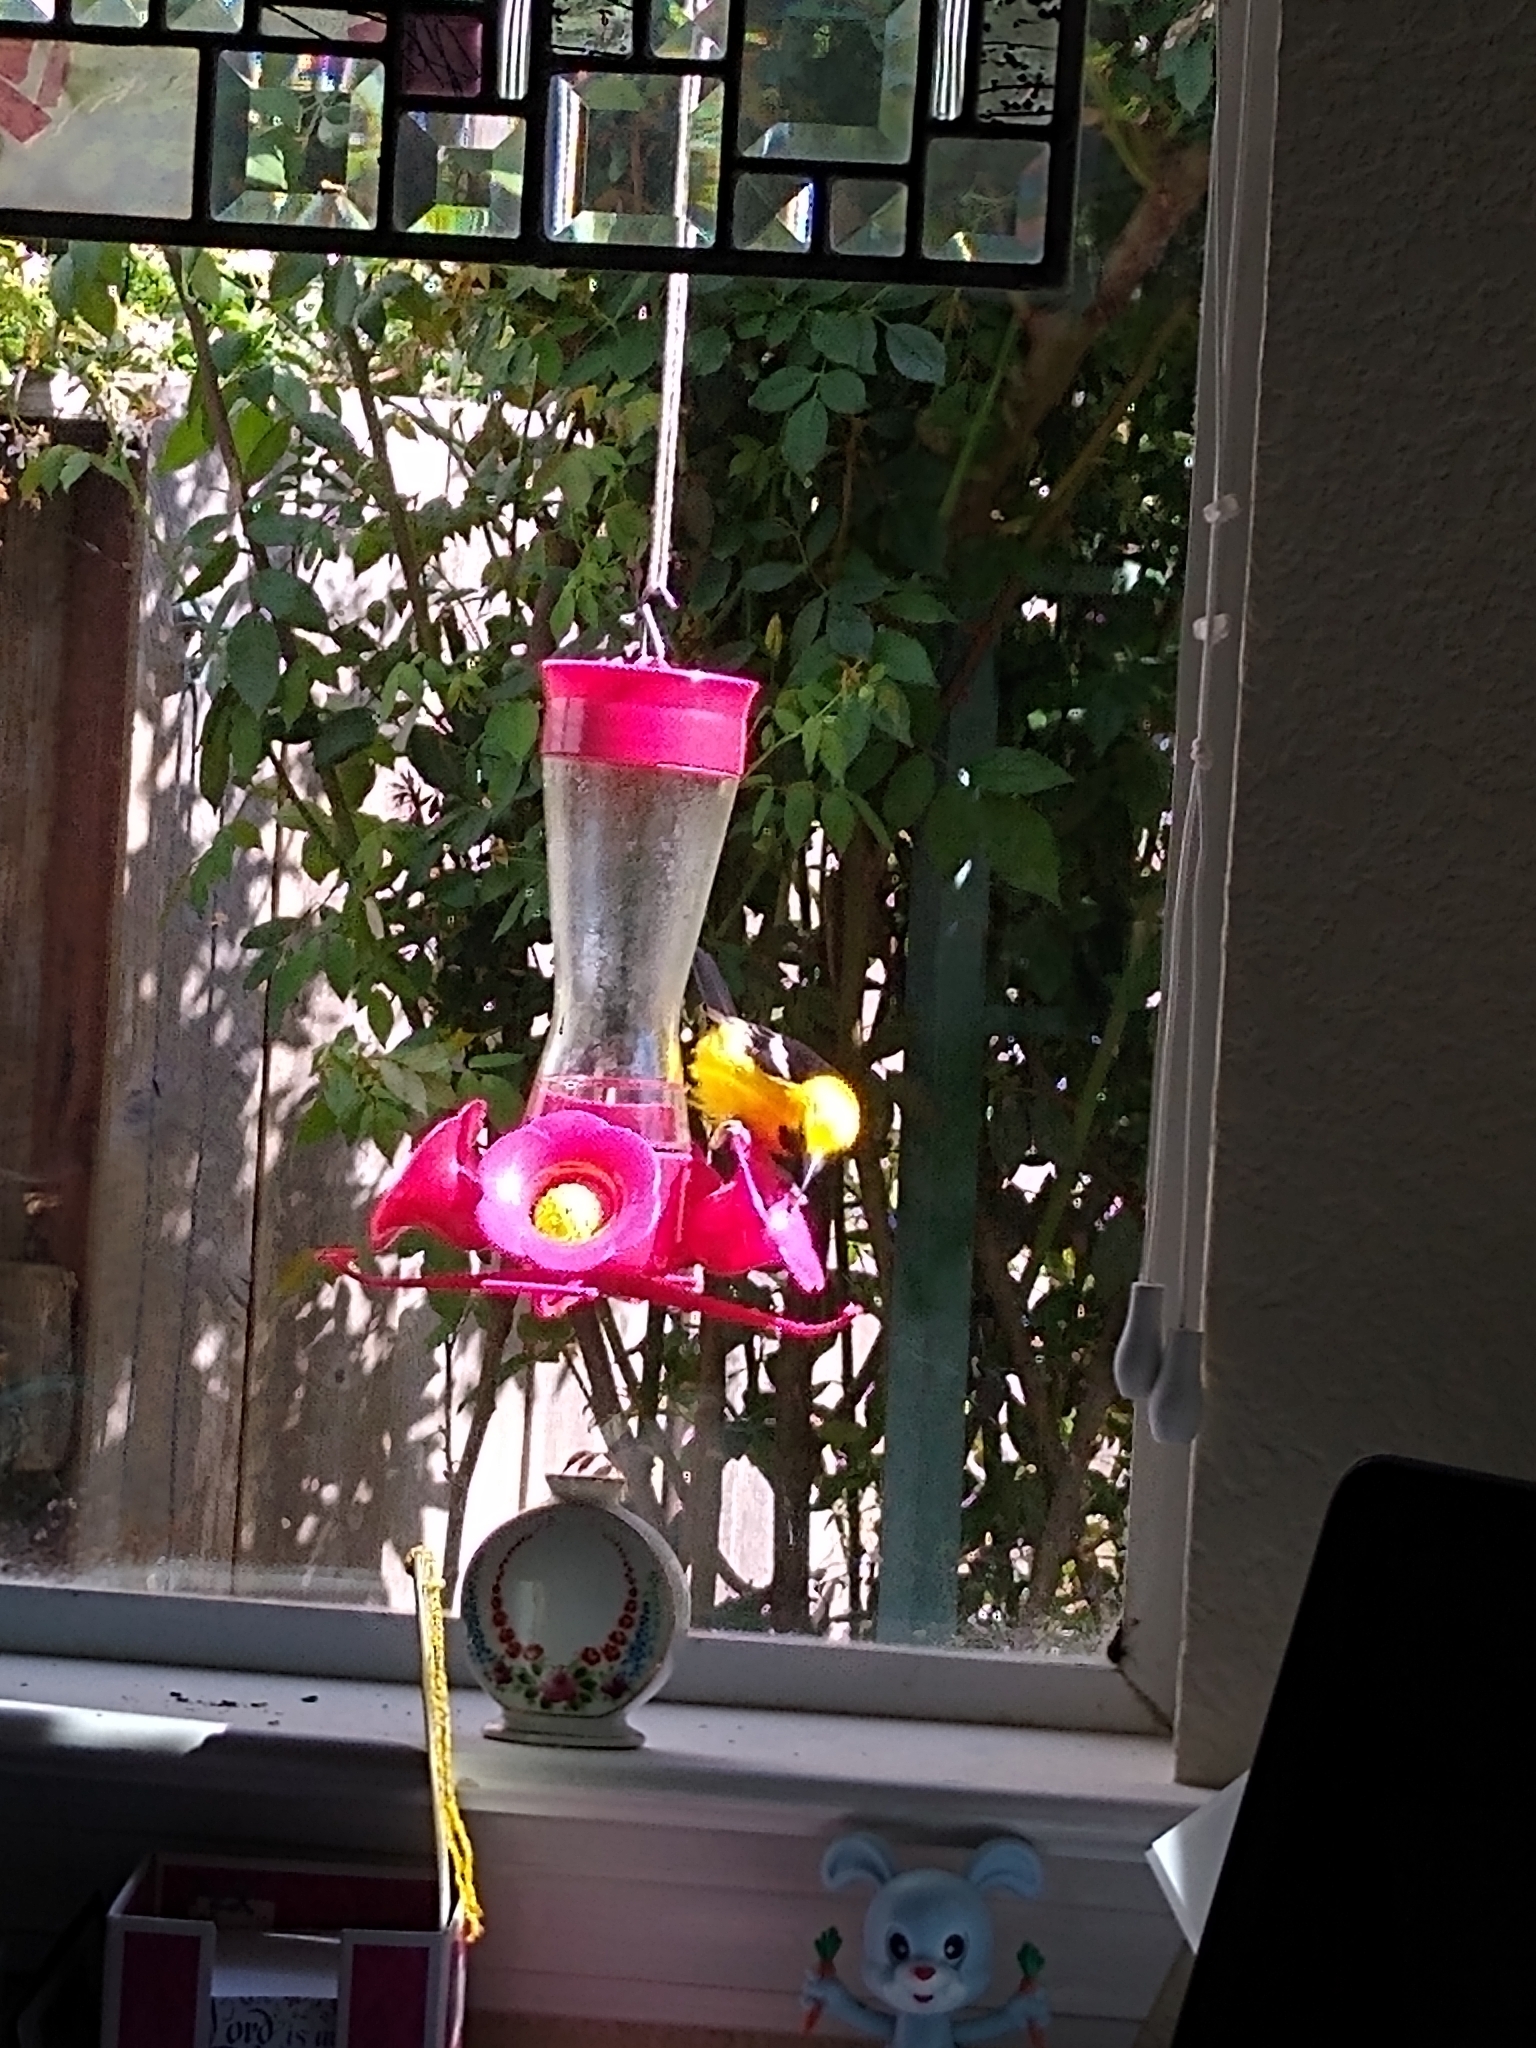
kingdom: Animalia
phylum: Chordata
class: Aves
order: Passeriformes
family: Icteridae
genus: Icterus
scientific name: Icterus cucullatus
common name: Hooded oriole
